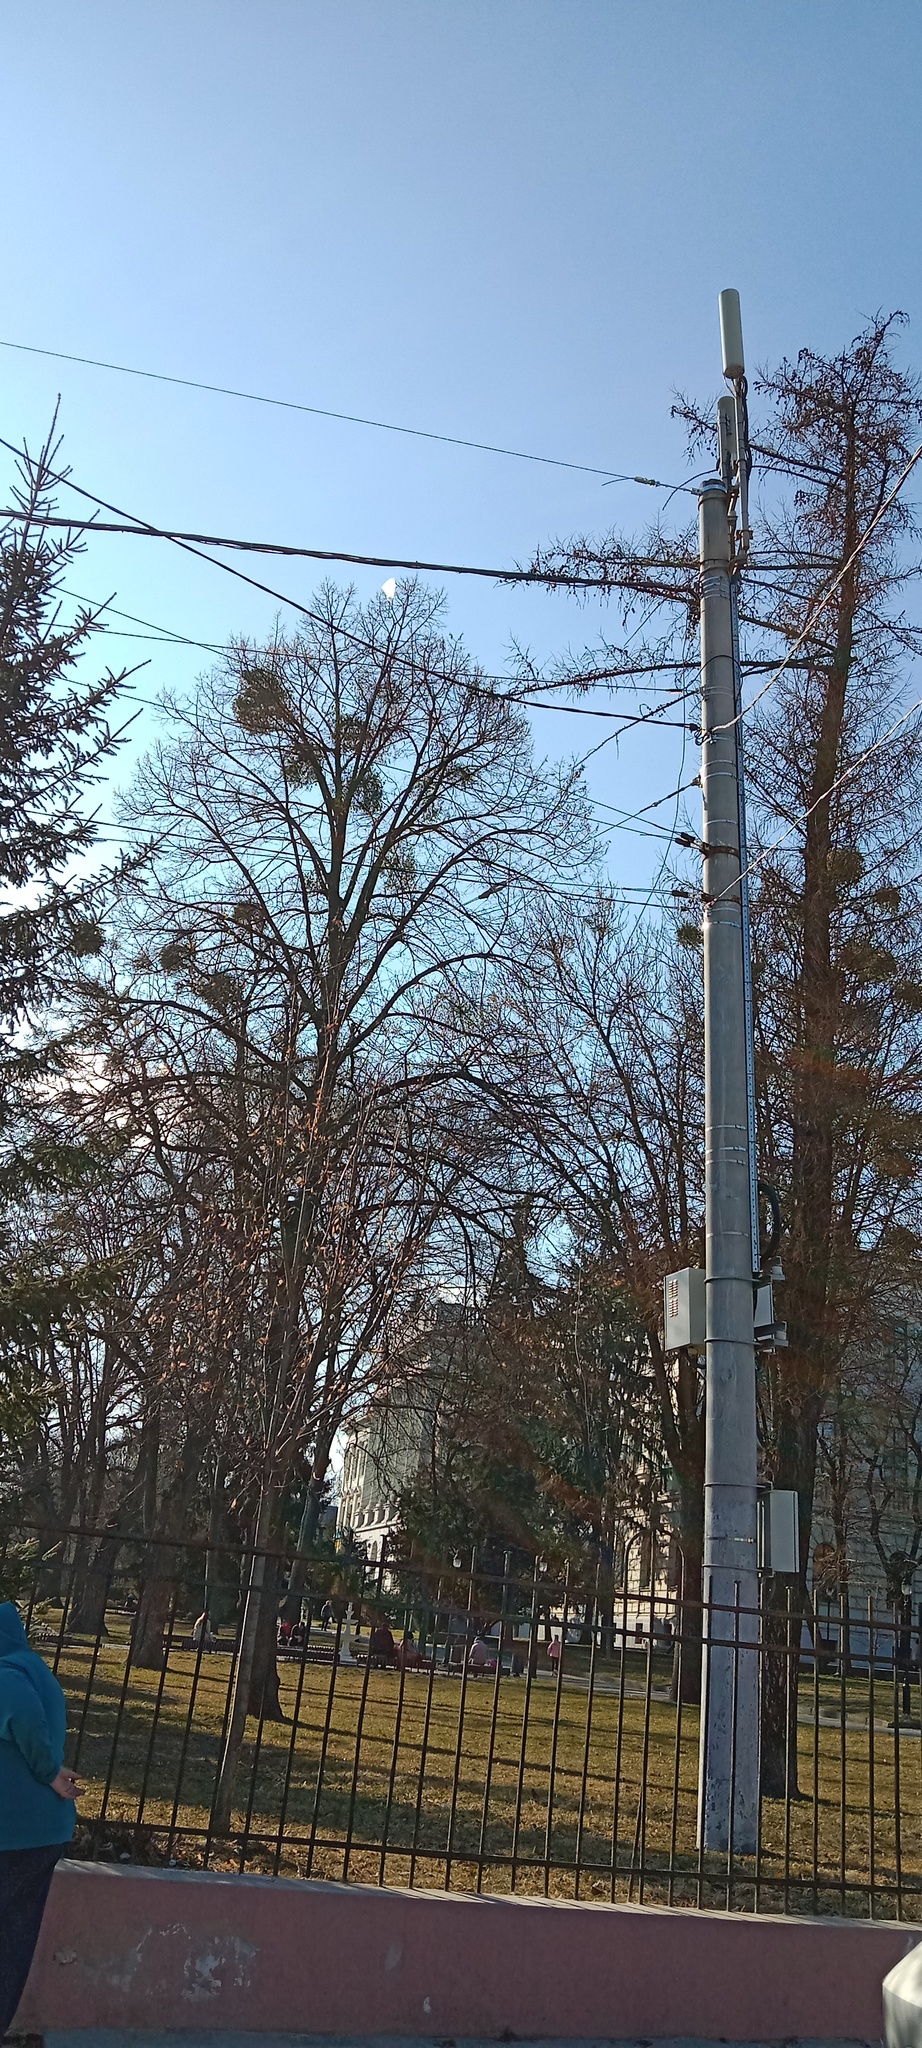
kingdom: Plantae
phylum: Tracheophyta
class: Magnoliopsida
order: Santalales
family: Viscaceae
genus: Viscum
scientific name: Viscum album
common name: Mistletoe
